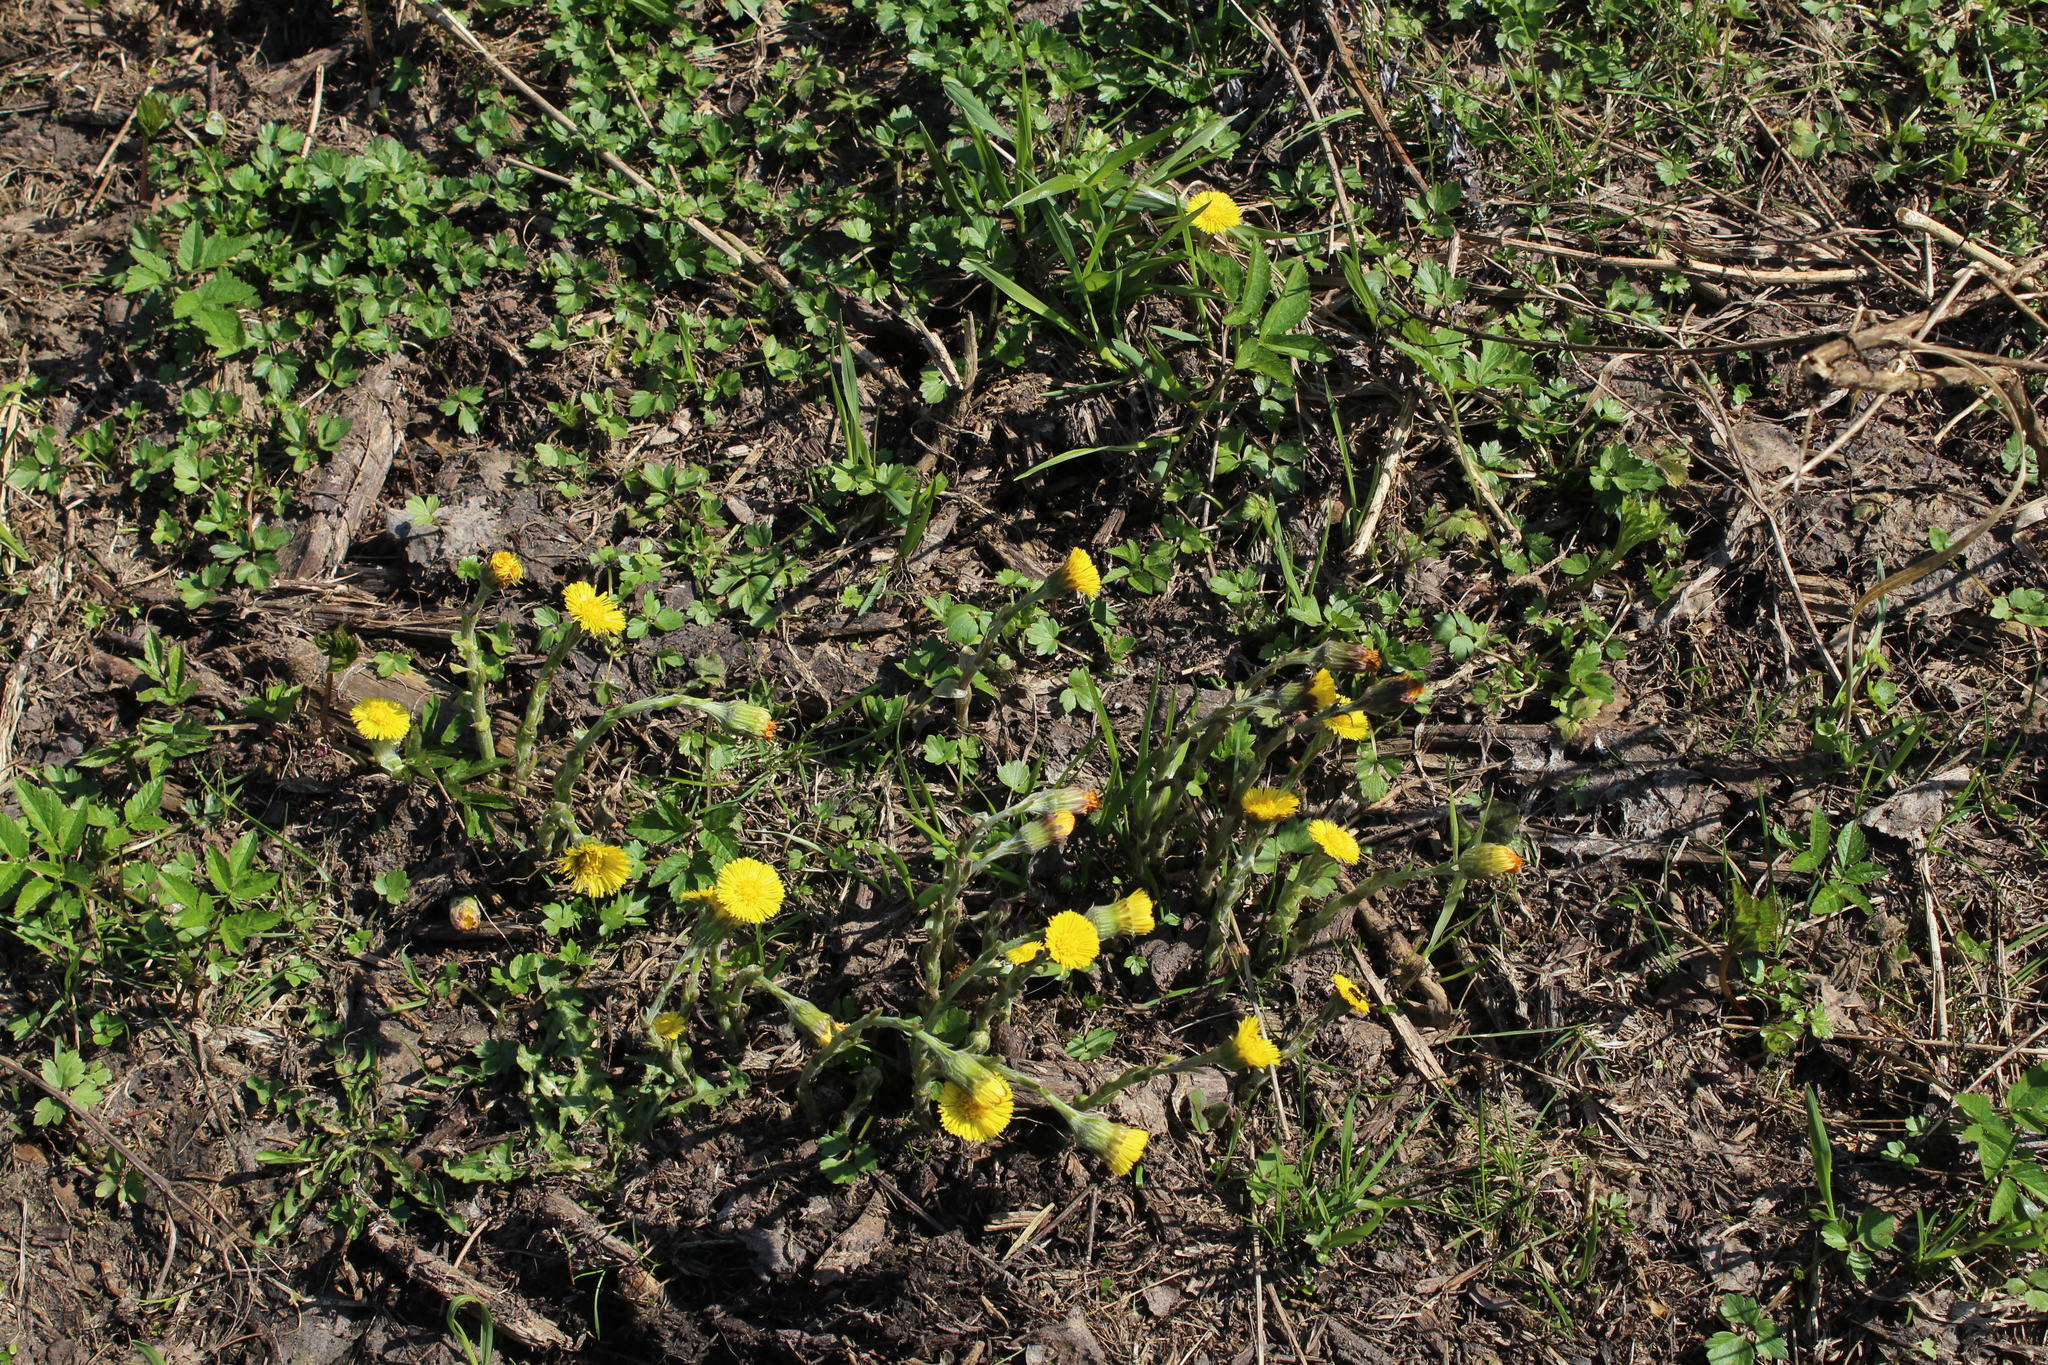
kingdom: Plantae
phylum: Tracheophyta
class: Magnoliopsida
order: Asterales
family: Asteraceae
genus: Tussilago
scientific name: Tussilago farfara
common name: Coltsfoot
